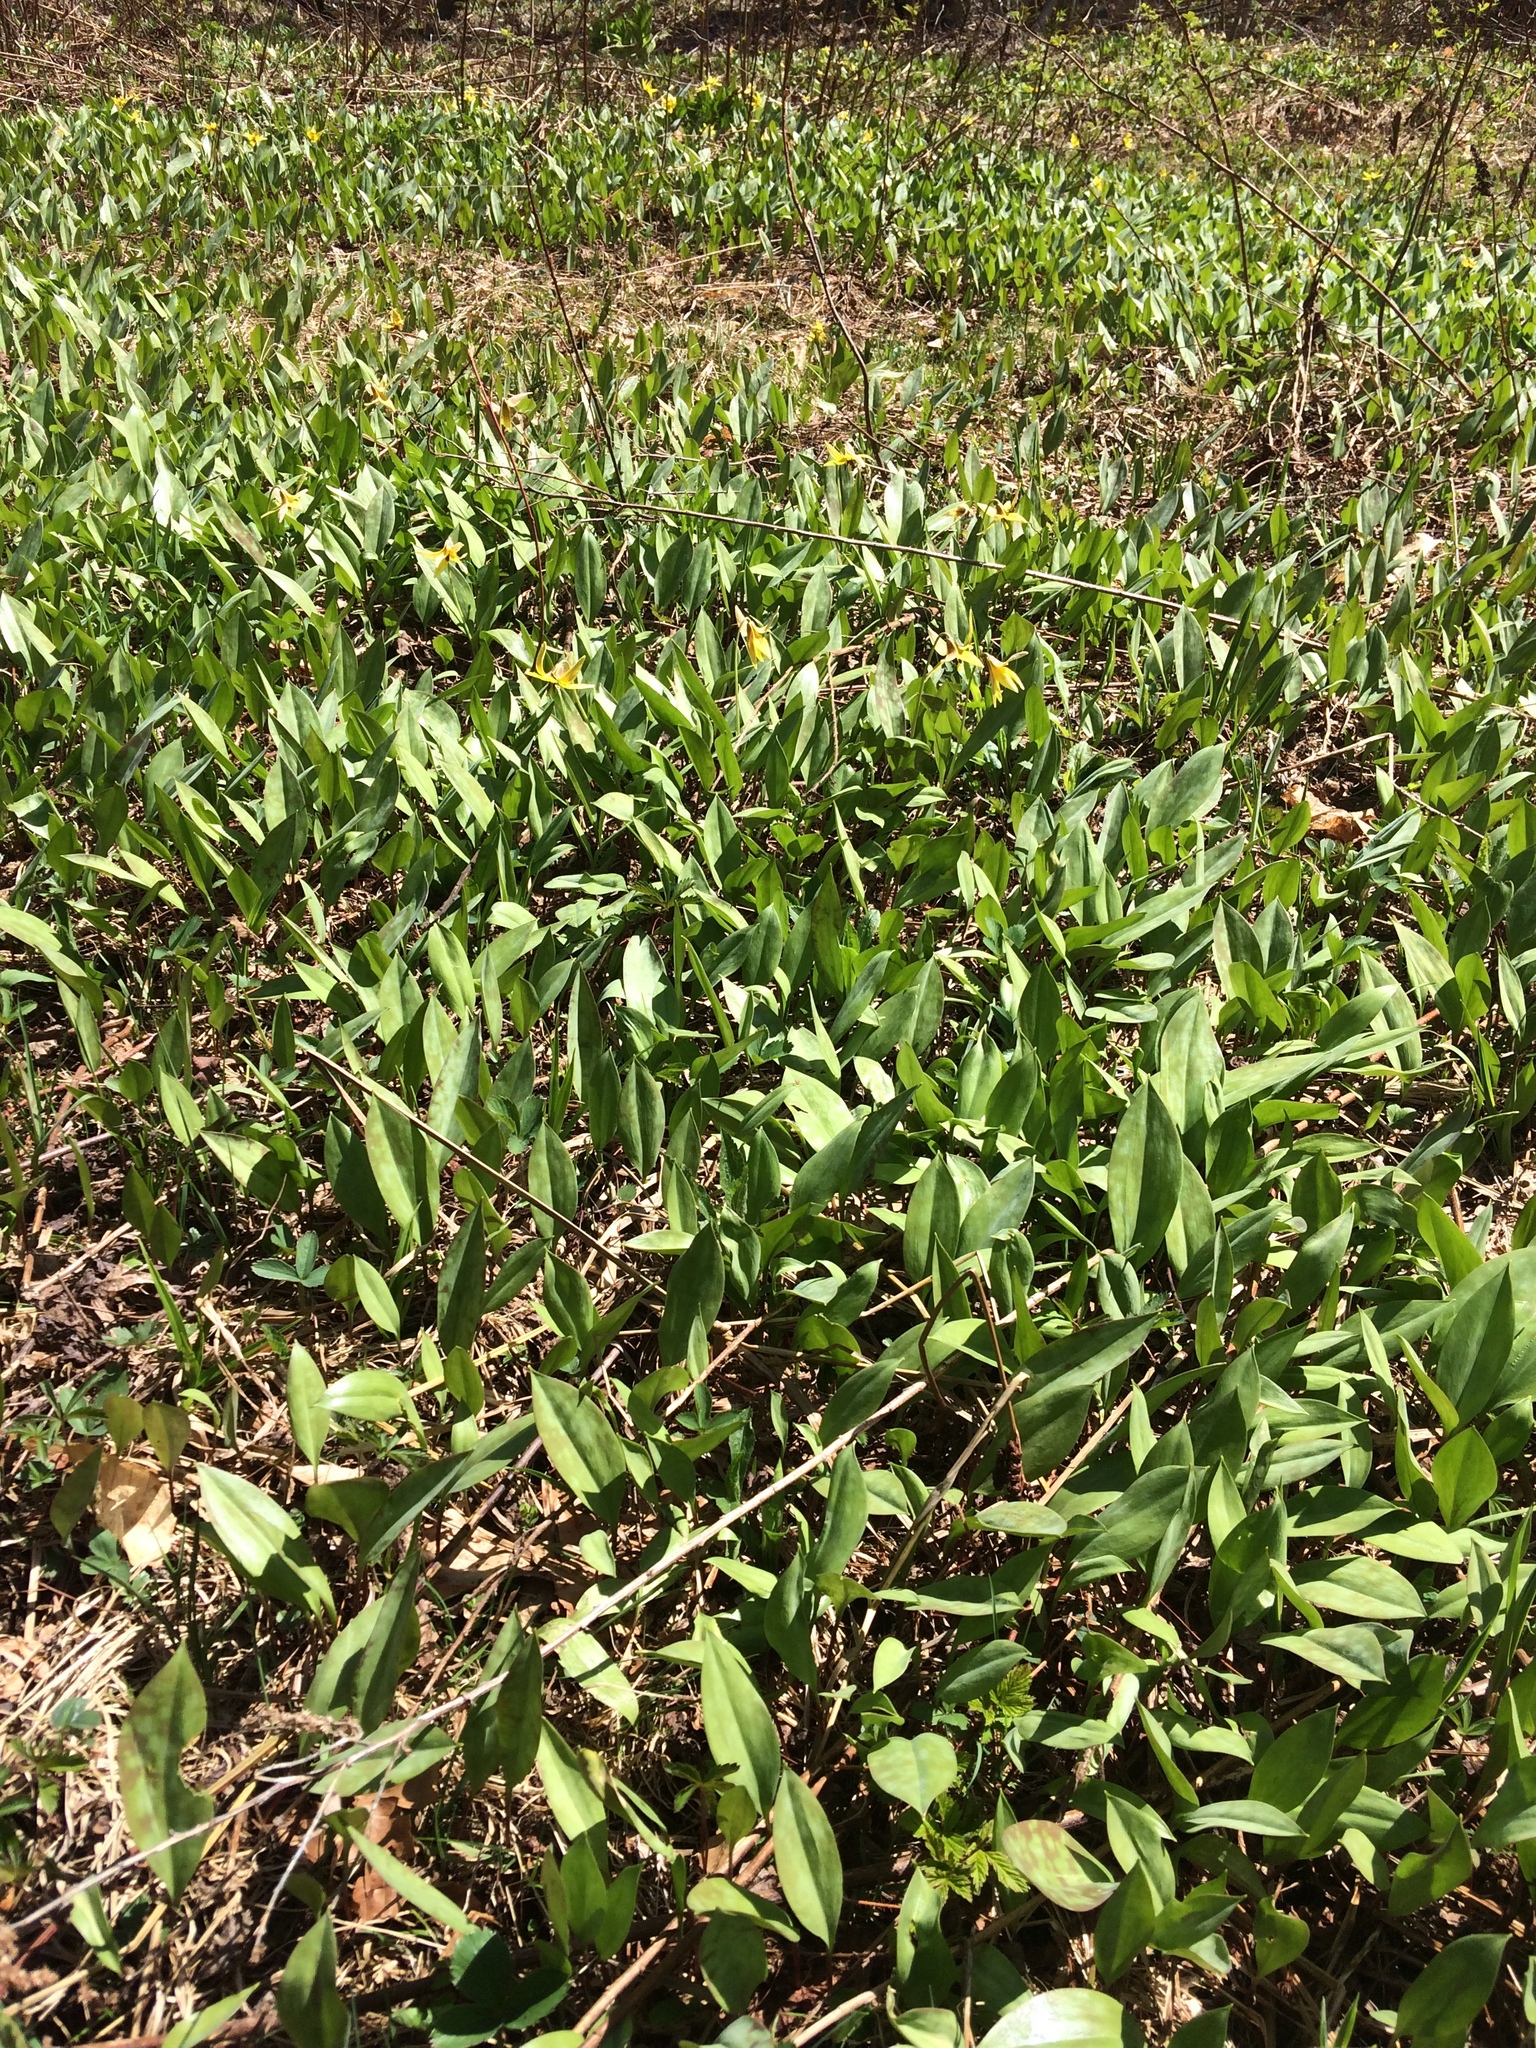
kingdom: Plantae
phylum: Tracheophyta
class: Liliopsida
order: Liliales
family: Liliaceae
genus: Erythronium
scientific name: Erythronium americanum
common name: Yellow adder's-tongue
